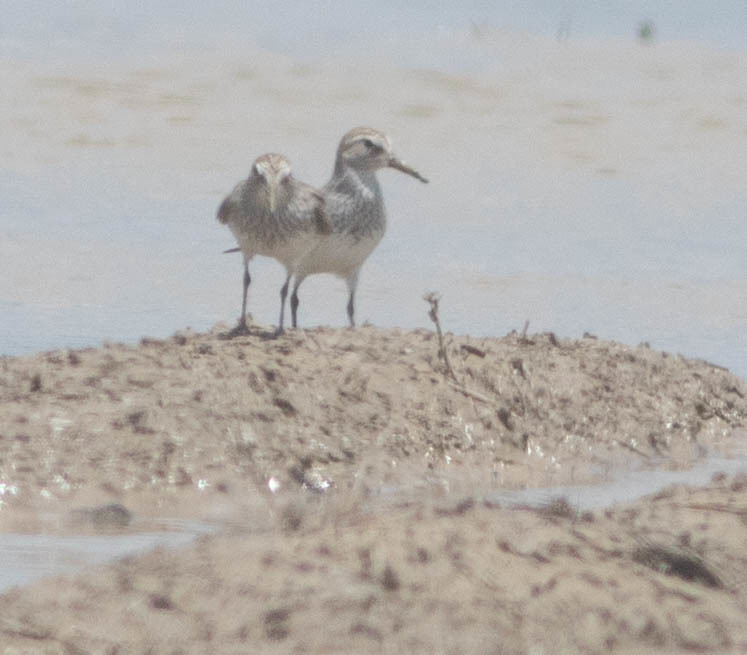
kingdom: Animalia
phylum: Chordata
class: Aves
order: Charadriiformes
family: Scolopacidae
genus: Calidris
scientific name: Calidris fuscicollis
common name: White-rumped sandpiper
